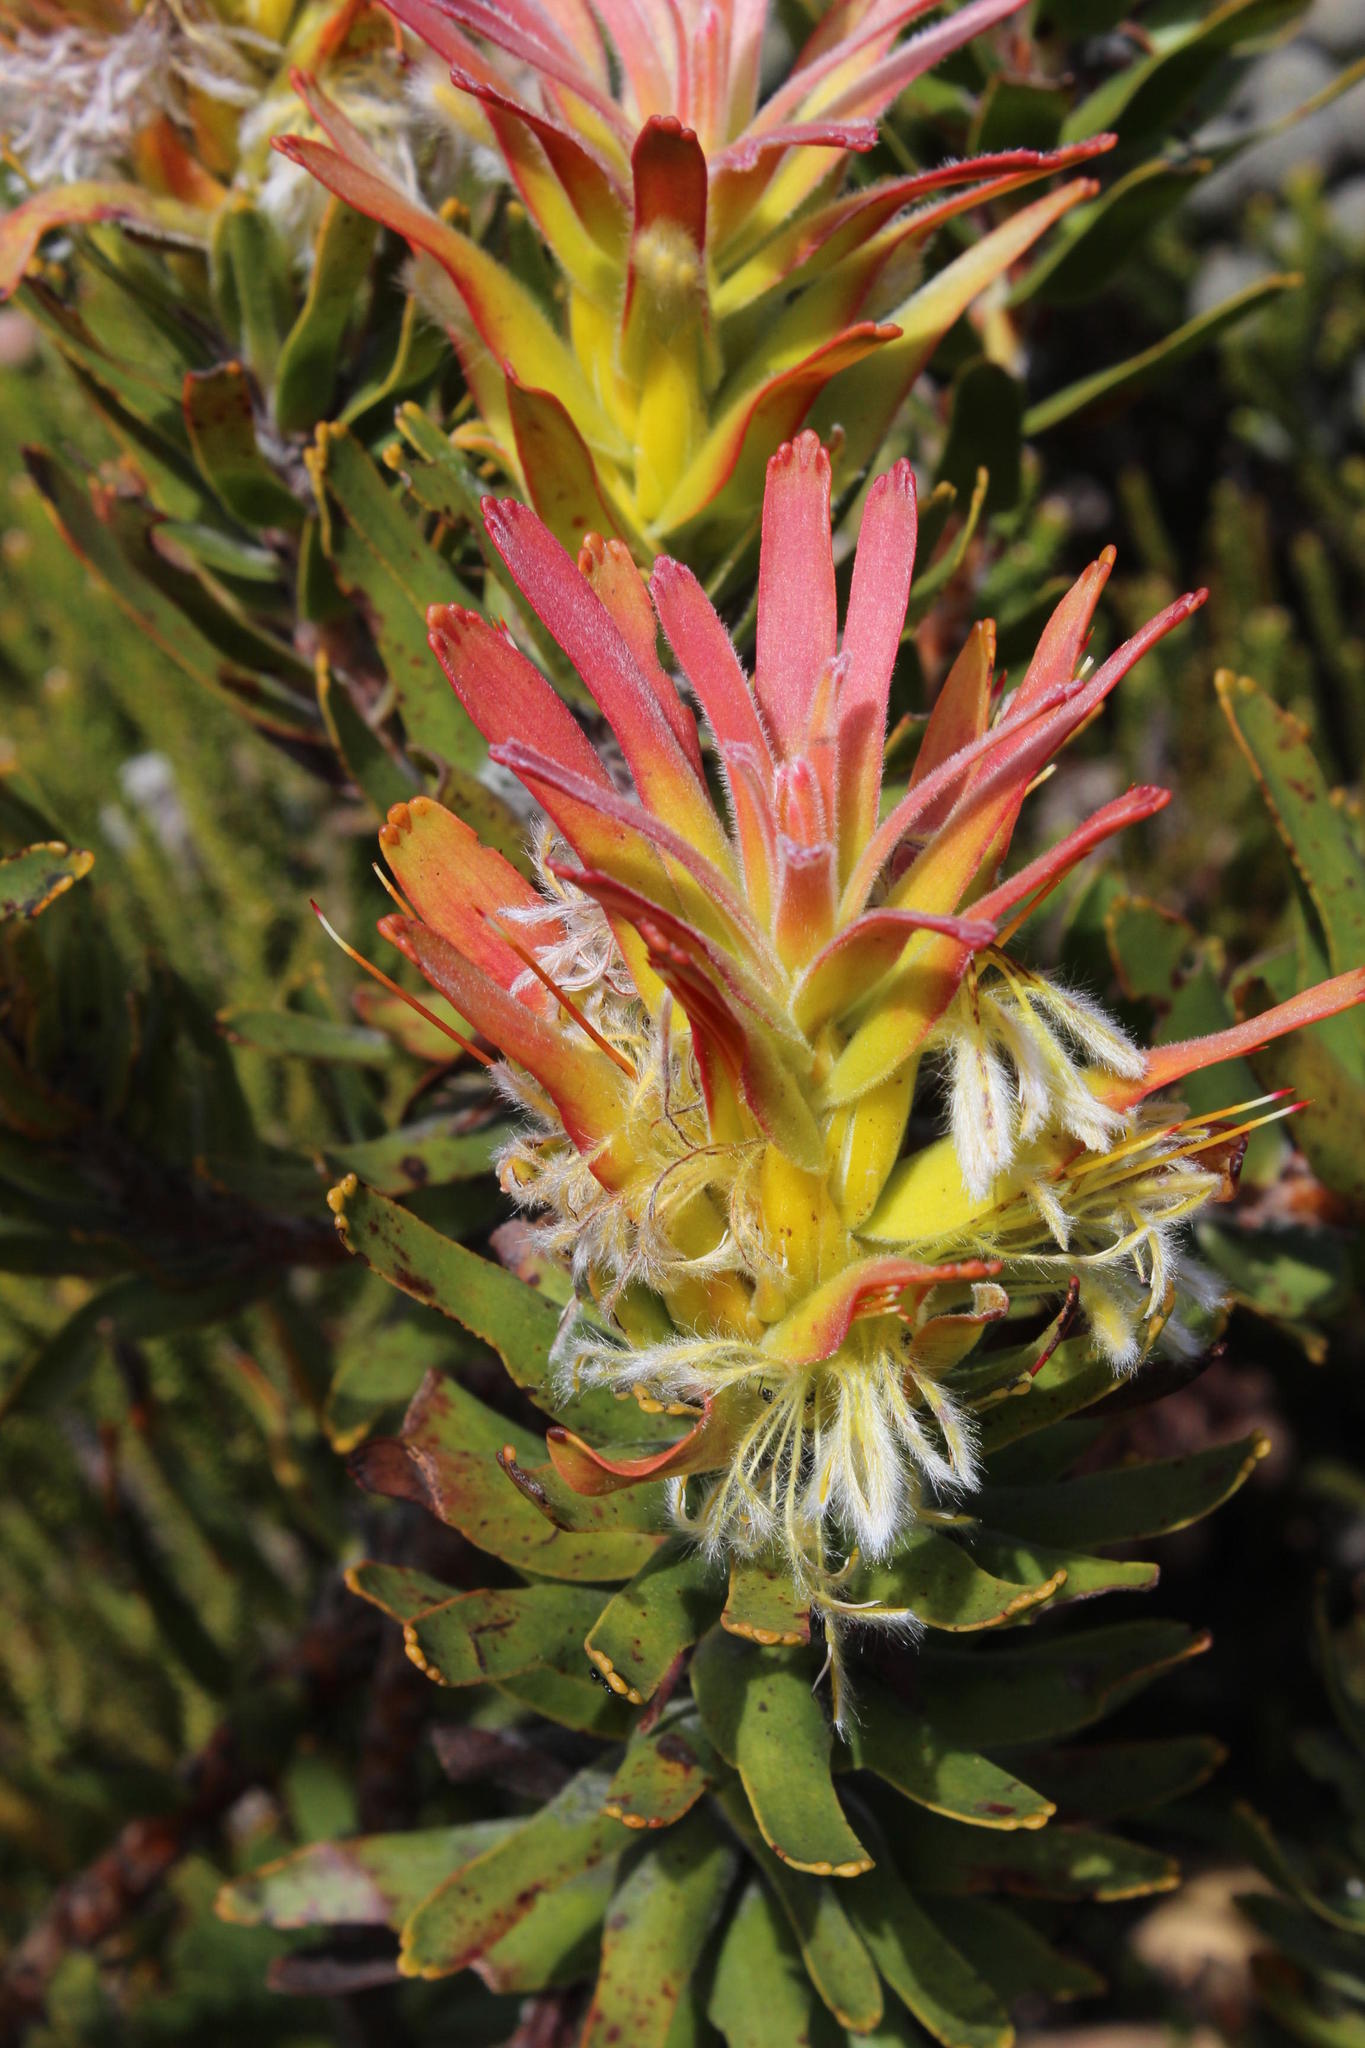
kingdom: Plantae
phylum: Tracheophyta
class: Magnoliopsida
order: Proteales
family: Proteaceae
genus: Mimetes
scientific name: Mimetes cucullatus
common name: Common pagoda
